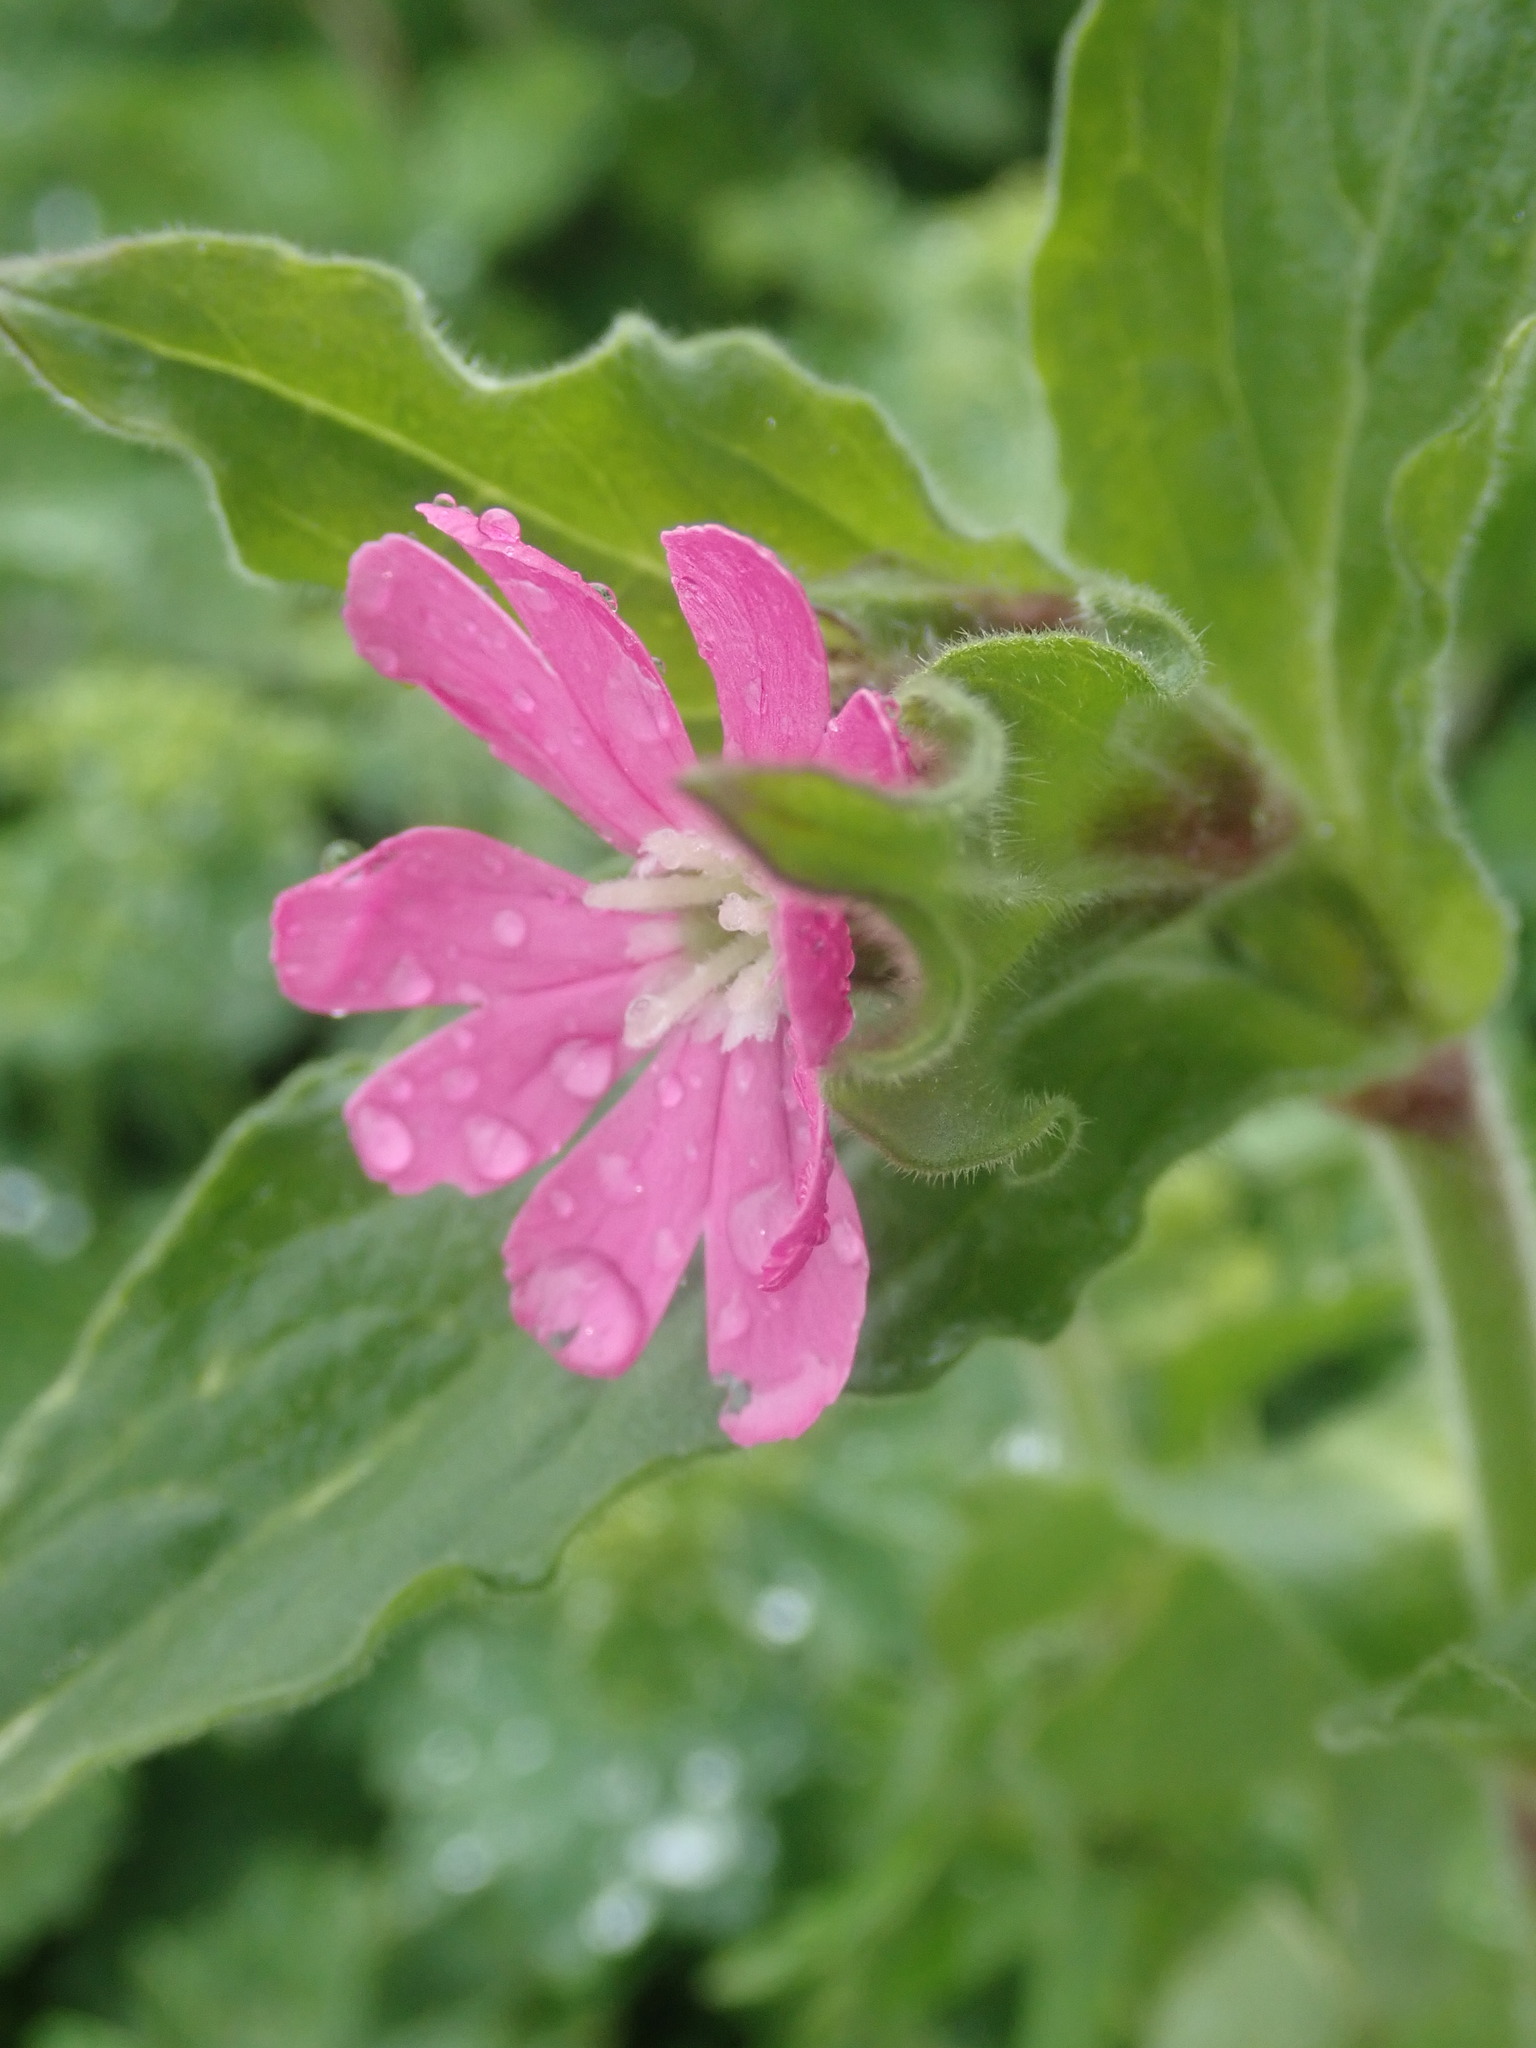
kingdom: Plantae
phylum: Tracheophyta
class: Magnoliopsida
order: Caryophyllales
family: Caryophyllaceae
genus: Silene
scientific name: Silene dioica
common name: Red campion
